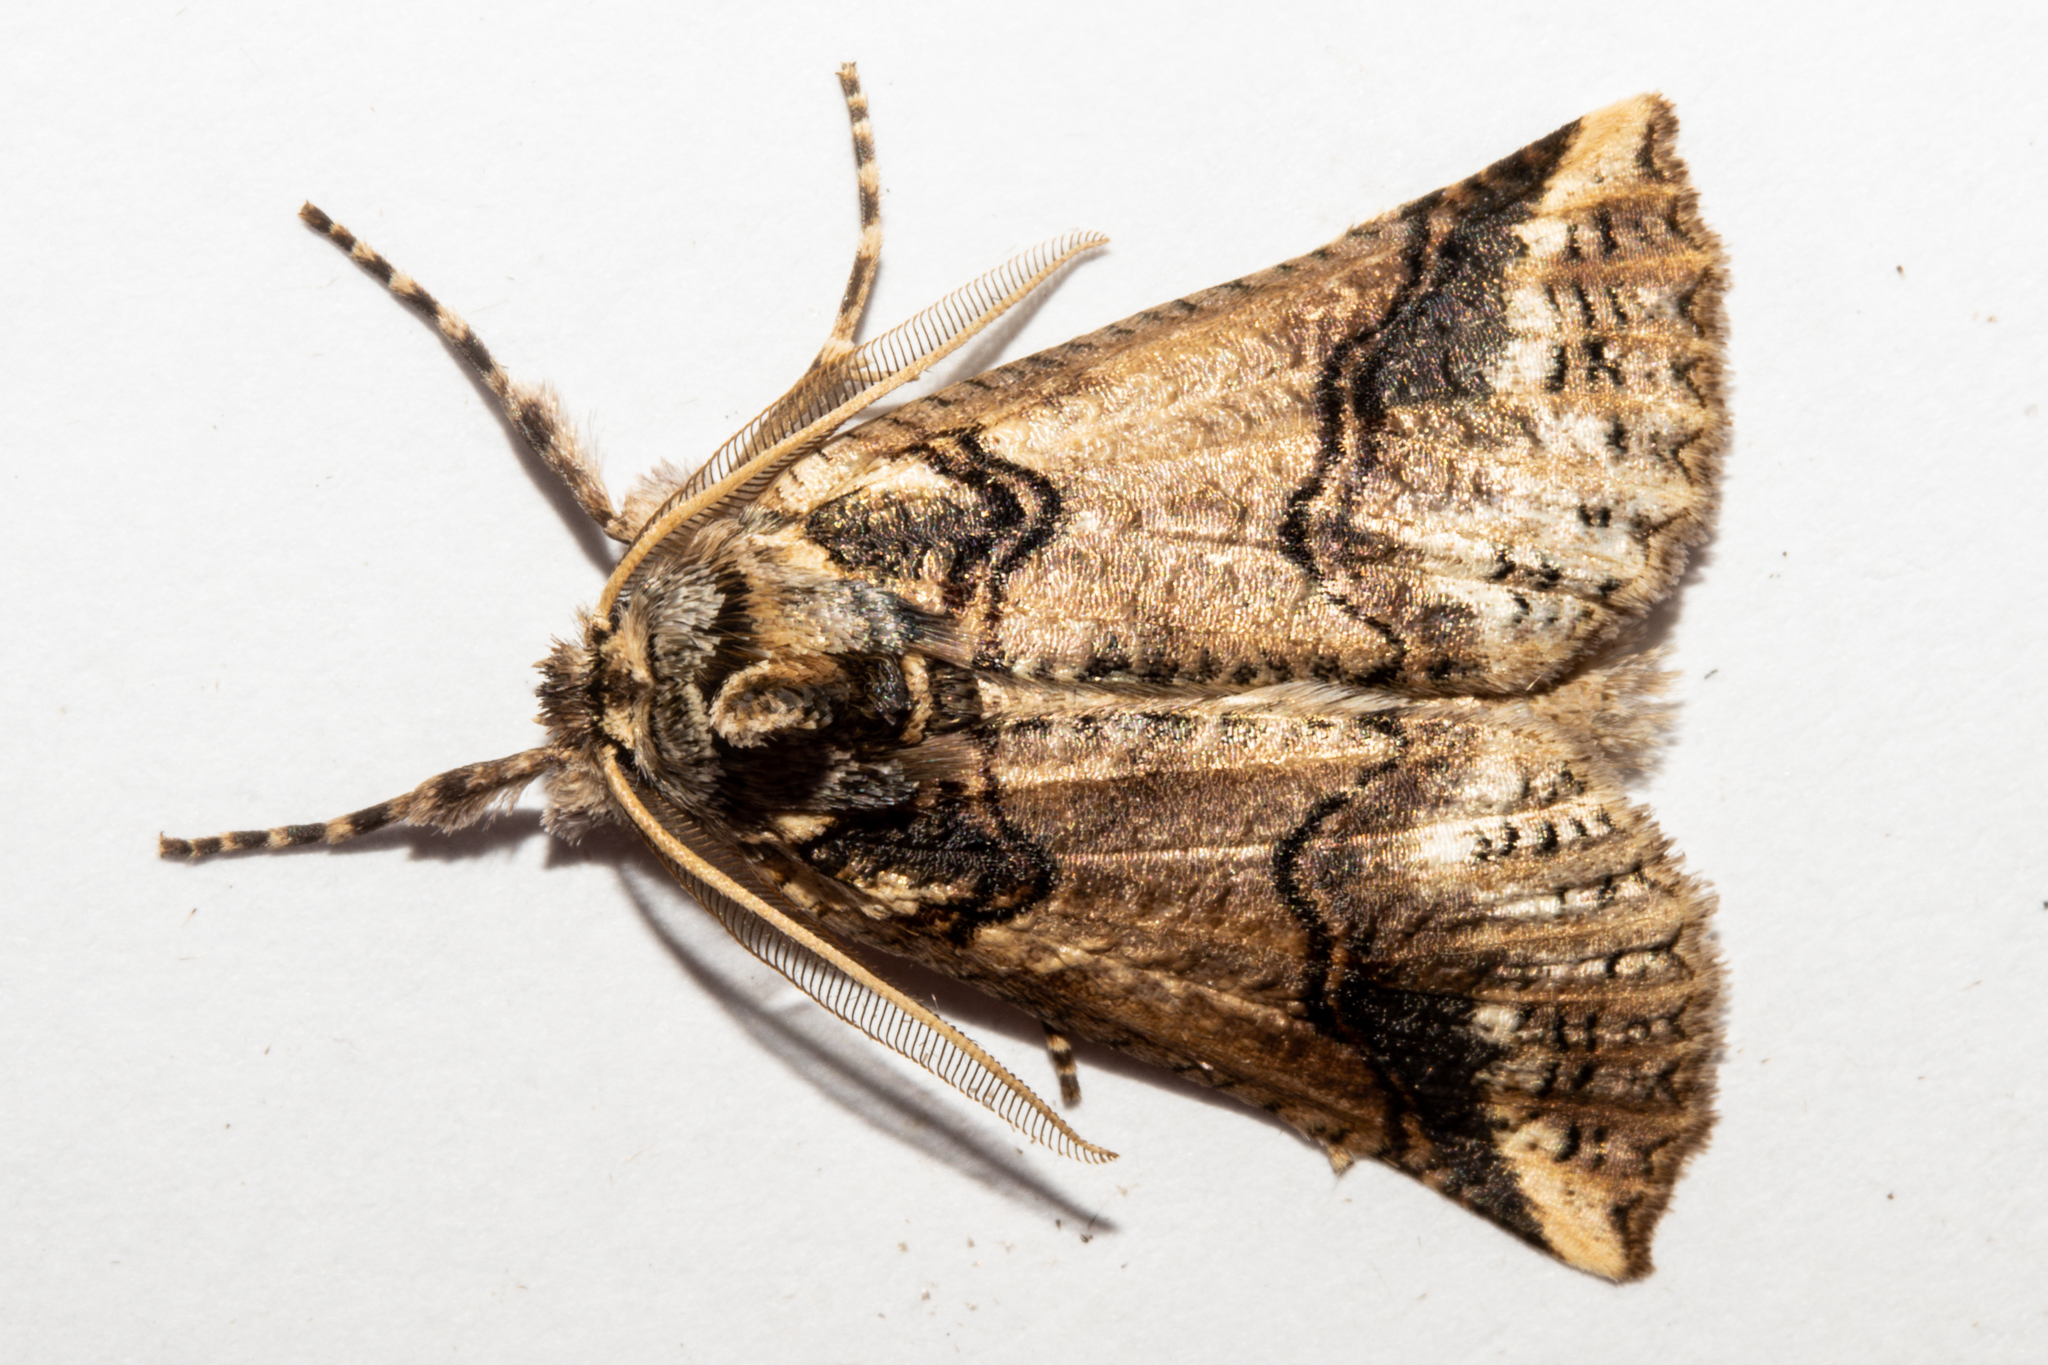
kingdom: Animalia
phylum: Arthropoda
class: Insecta
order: Lepidoptera
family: Geometridae
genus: Declana
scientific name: Declana
